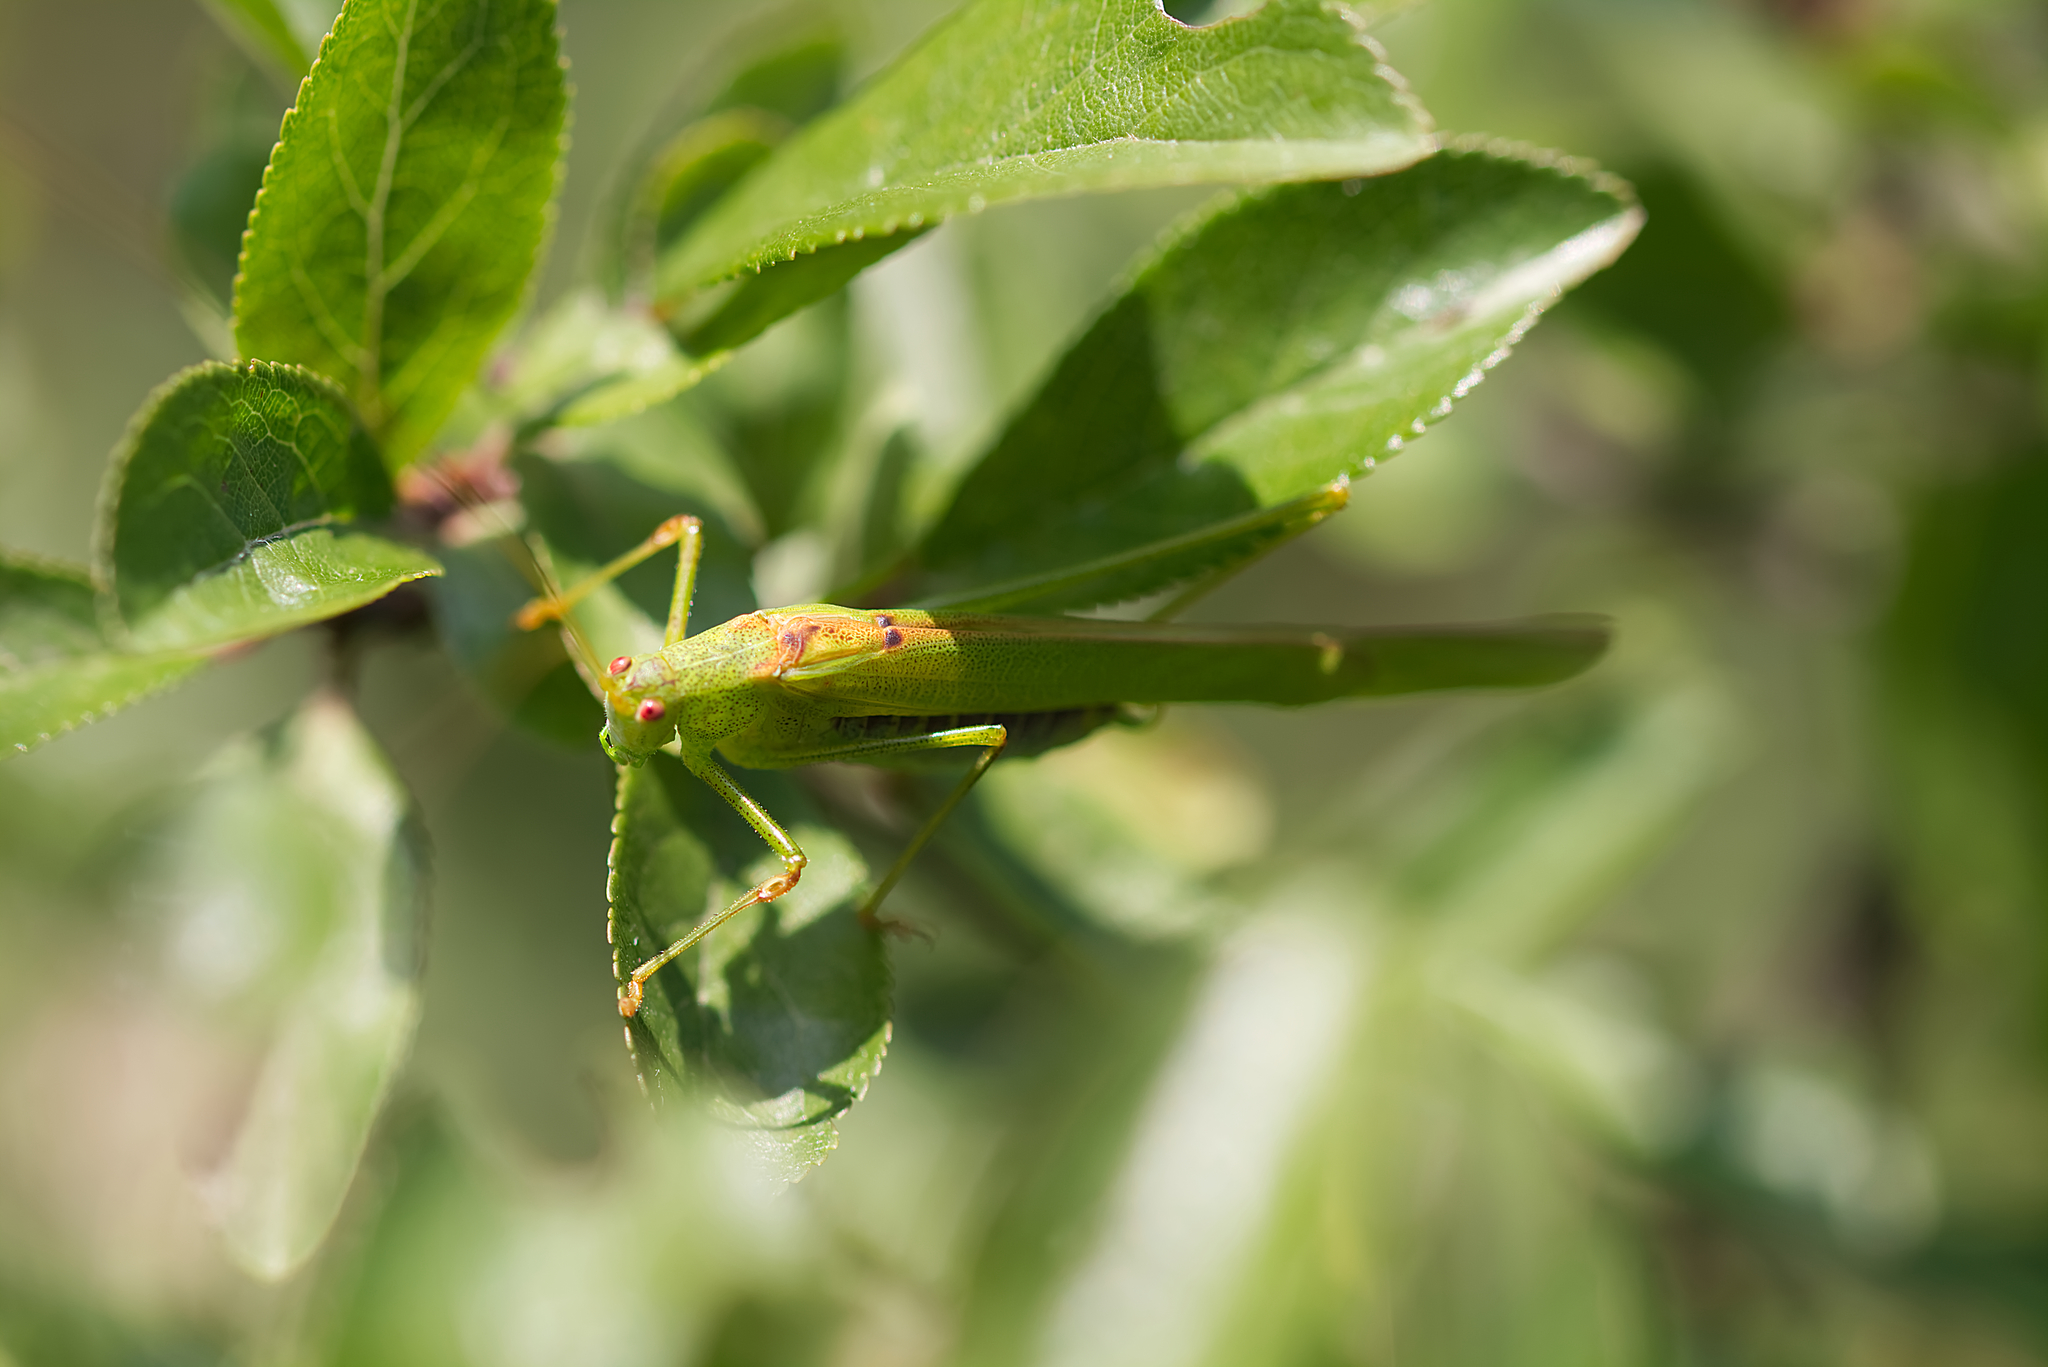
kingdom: Animalia
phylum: Arthropoda
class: Insecta
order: Orthoptera
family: Tettigoniidae
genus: Phaneroptera
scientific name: Phaneroptera falcata
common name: Sickle-bearing bush-cricket
